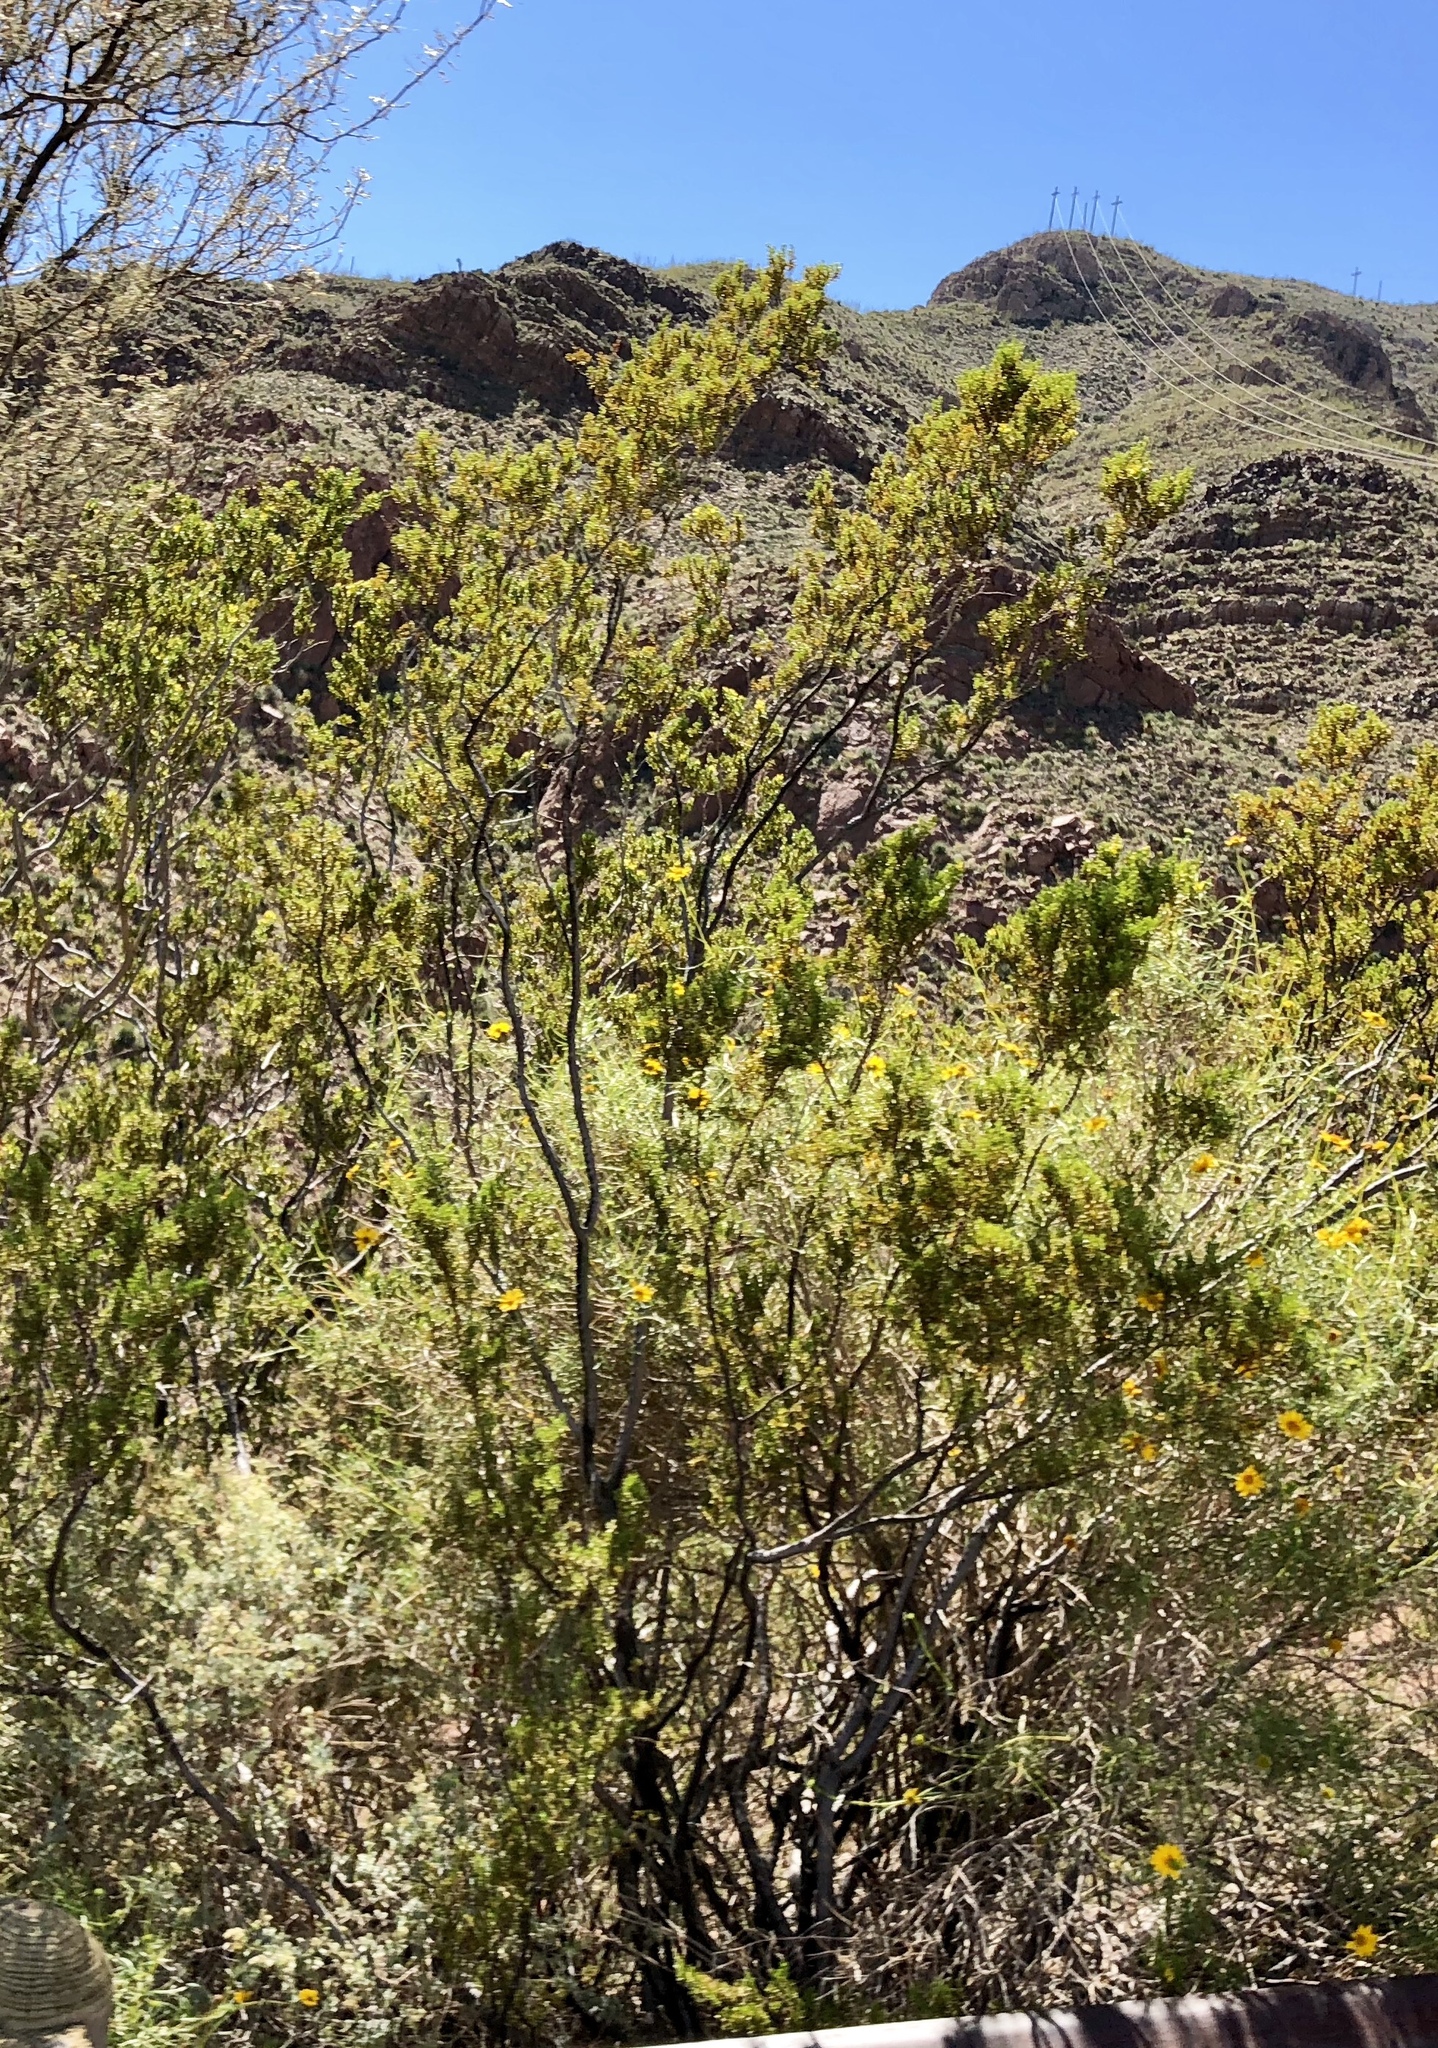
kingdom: Plantae
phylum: Tracheophyta
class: Magnoliopsida
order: Zygophyllales
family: Zygophyllaceae
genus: Larrea
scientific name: Larrea tridentata
